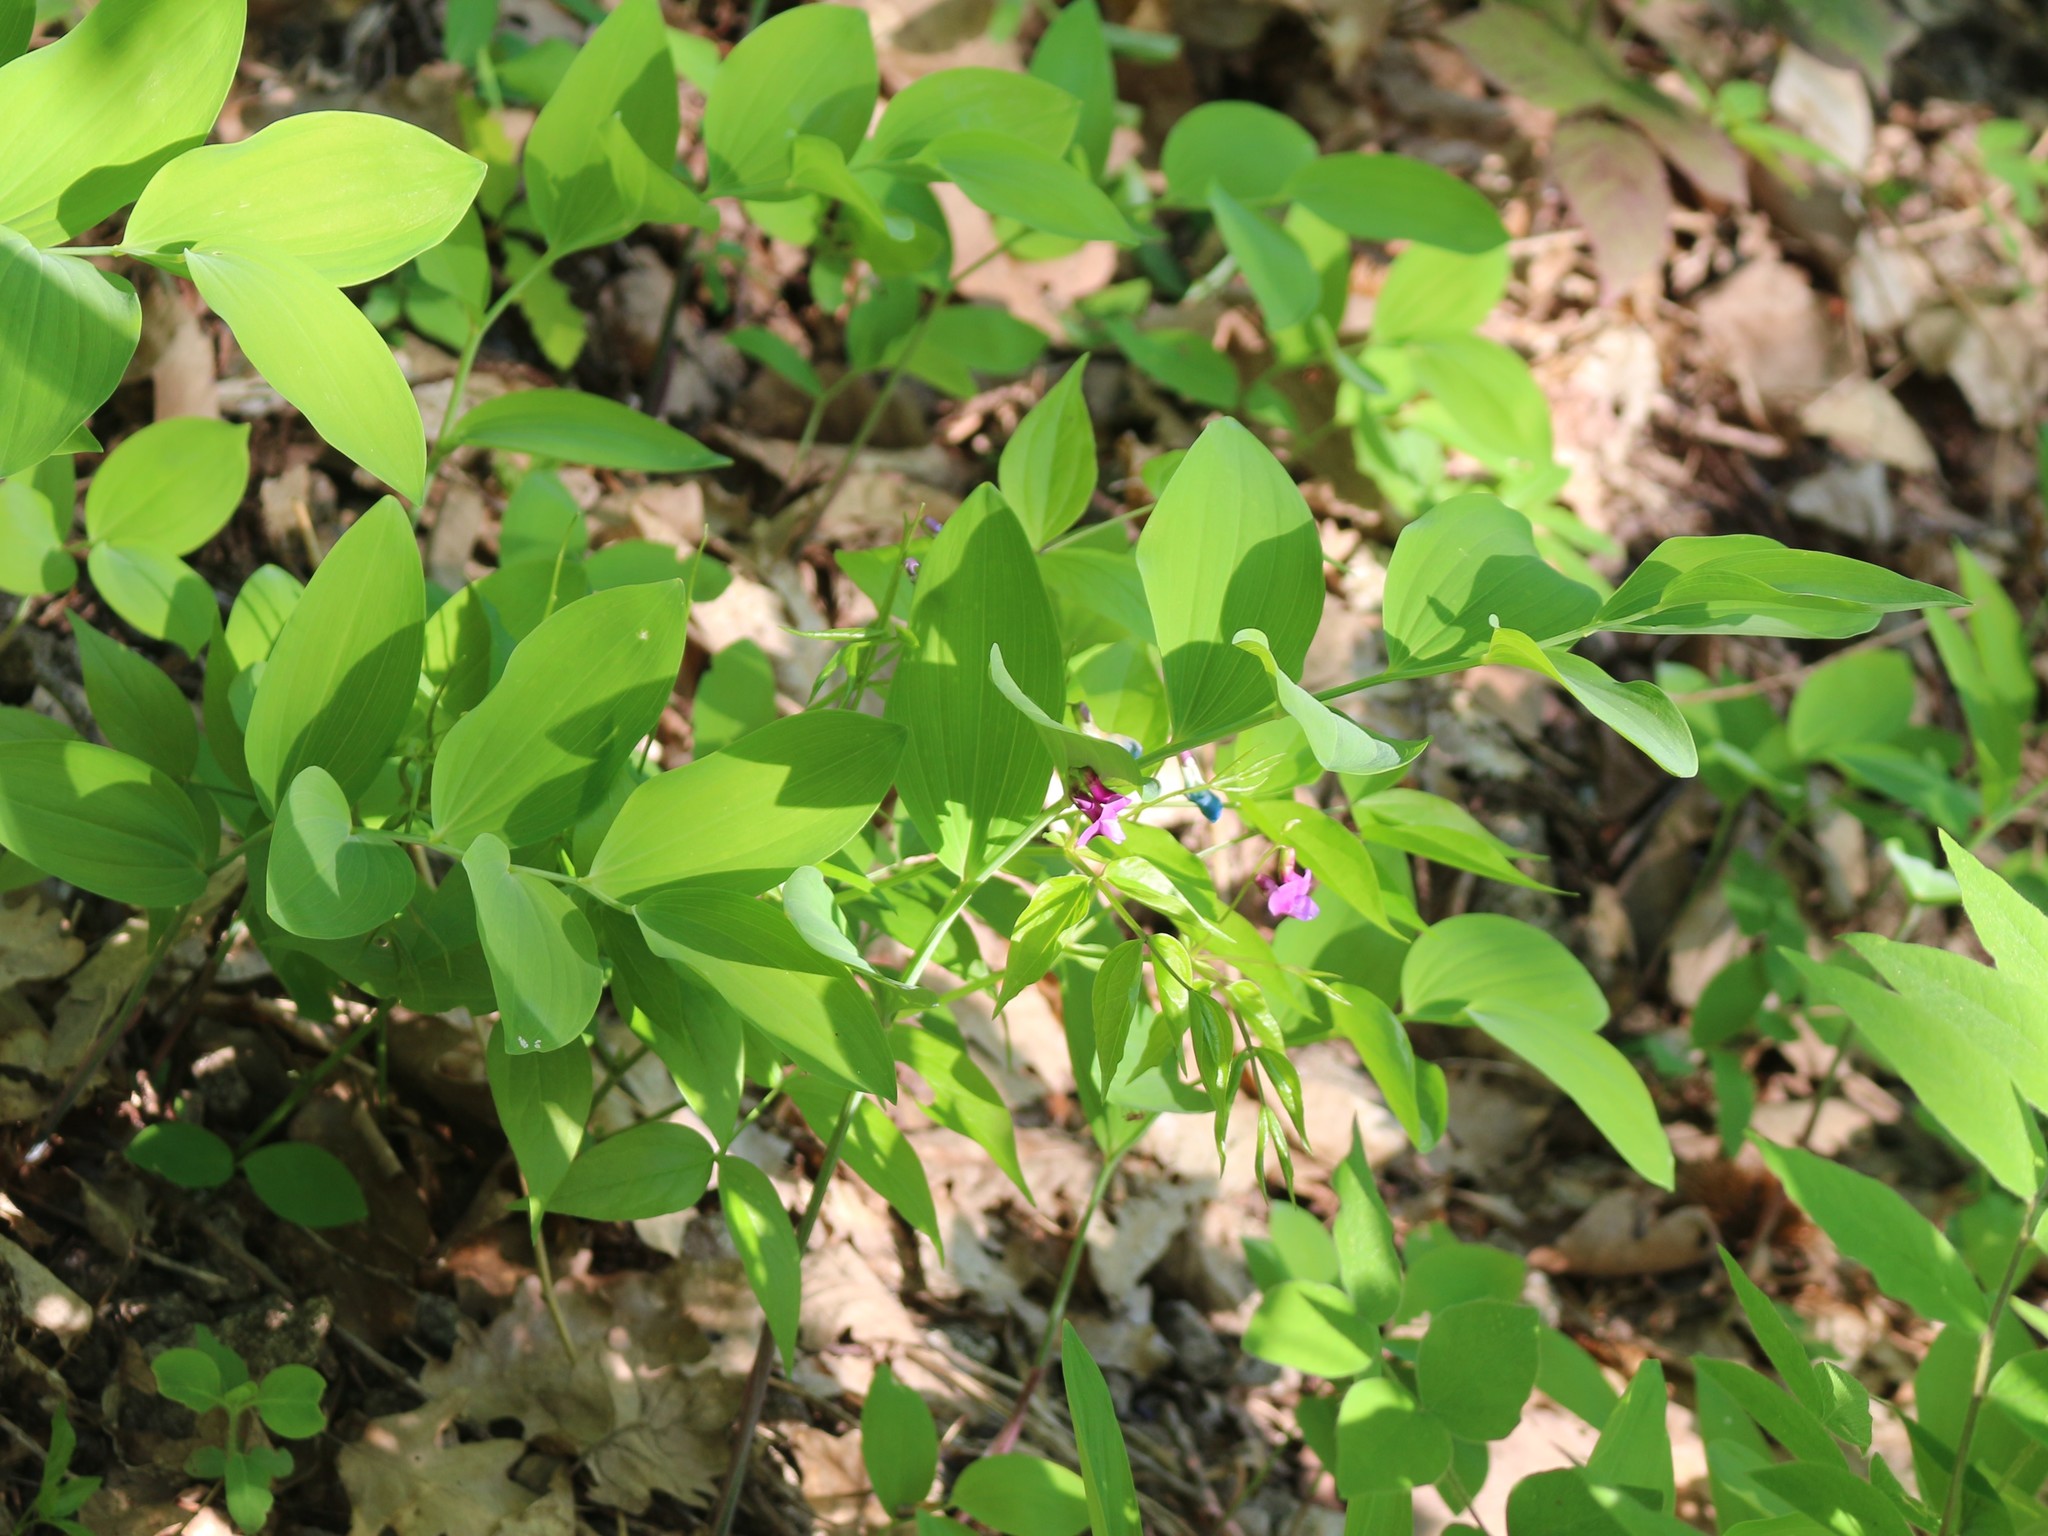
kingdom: Plantae
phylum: Tracheophyta
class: Magnoliopsida
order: Fabales
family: Fabaceae
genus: Lathyrus
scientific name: Lathyrus vernus
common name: Spring pea
